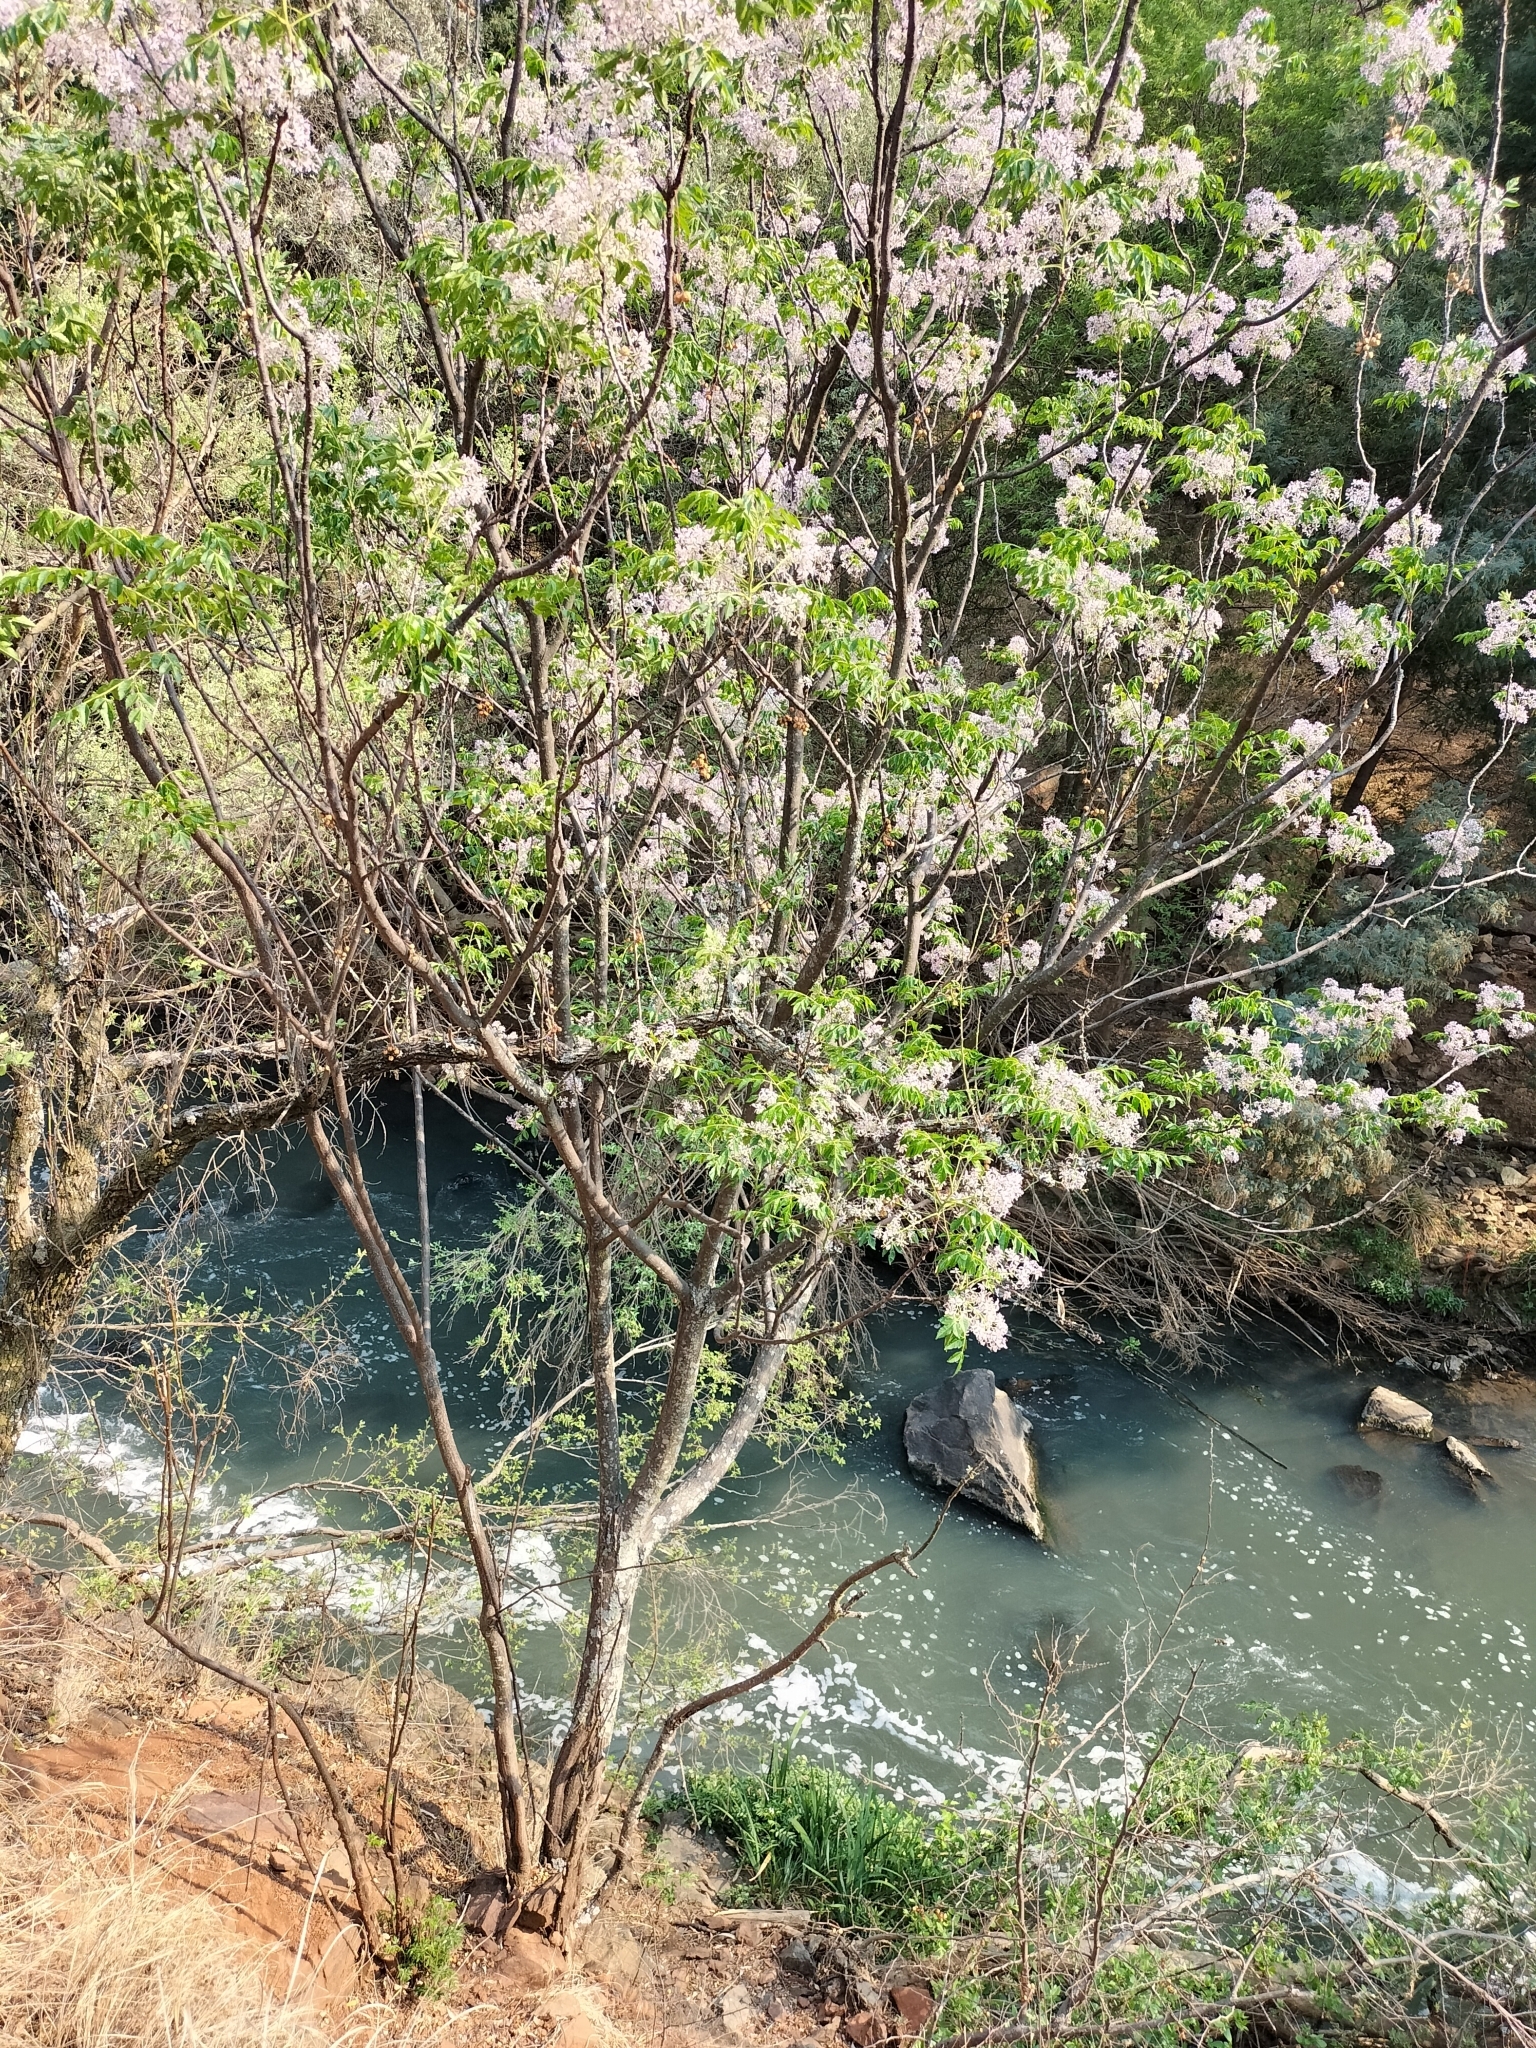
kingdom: Plantae
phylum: Tracheophyta
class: Magnoliopsida
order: Sapindales
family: Meliaceae
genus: Melia
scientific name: Melia azedarach
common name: Chinaberrytree
